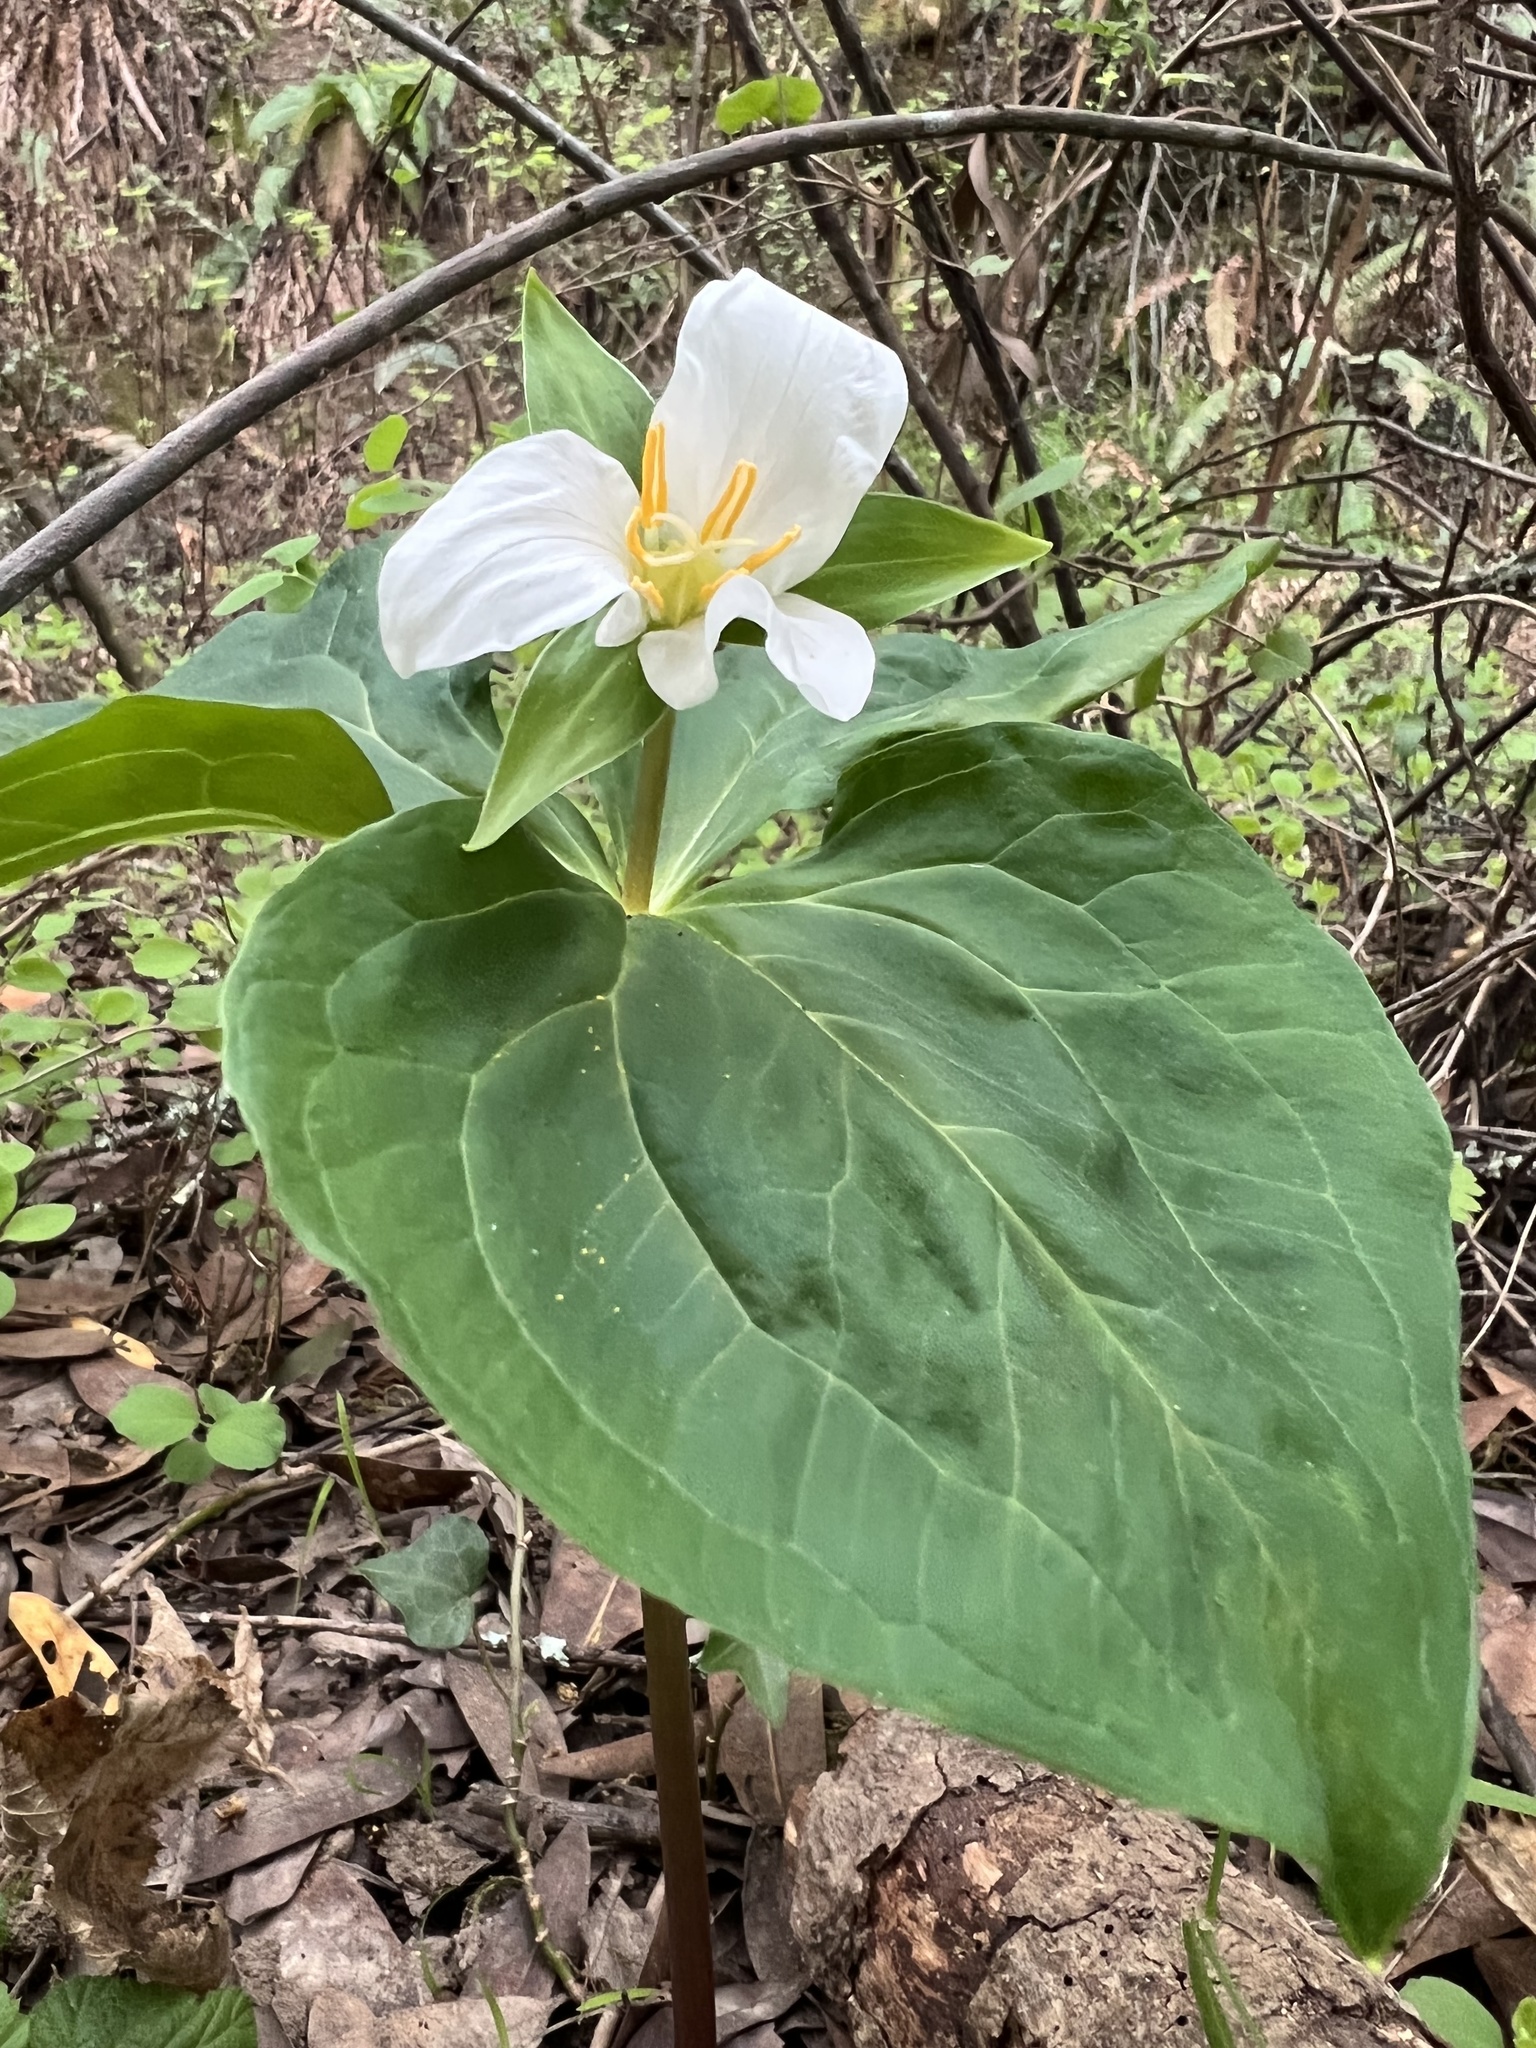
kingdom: Plantae
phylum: Tracheophyta
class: Liliopsida
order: Liliales
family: Melanthiaceae
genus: Trillium
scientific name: Trillium ovatum
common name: Pacific trillium
